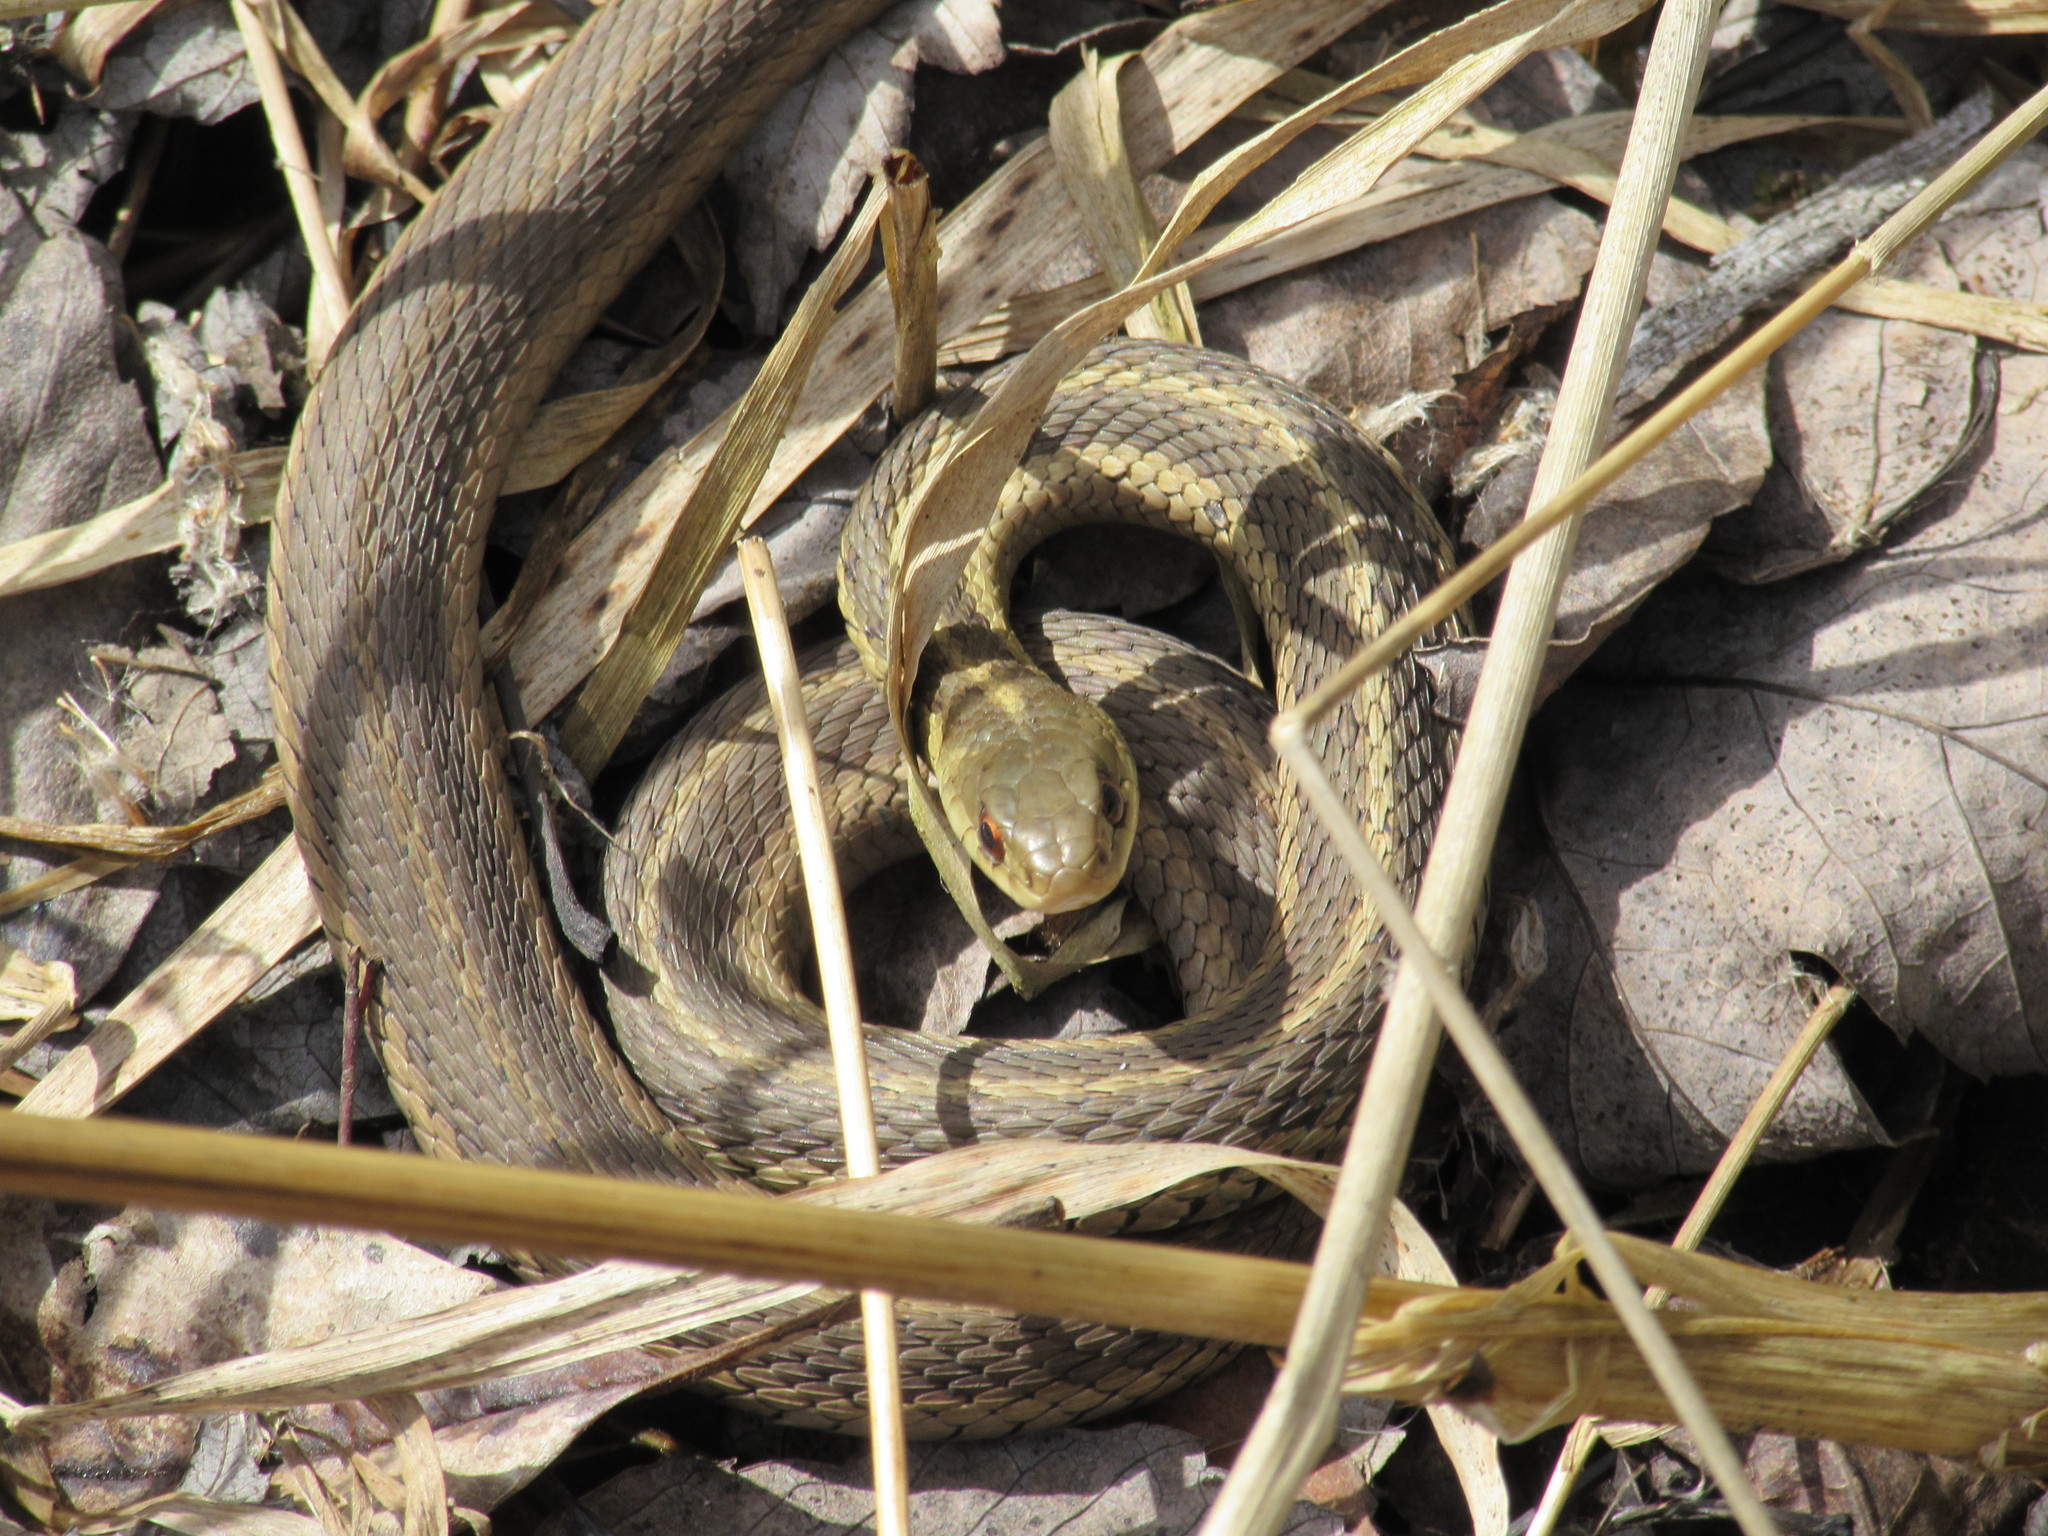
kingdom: Animalia
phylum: Chordata
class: Squamata
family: Colubridae
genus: Thamnophis
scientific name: Thamnophis sirtalis
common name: Common garter snake
